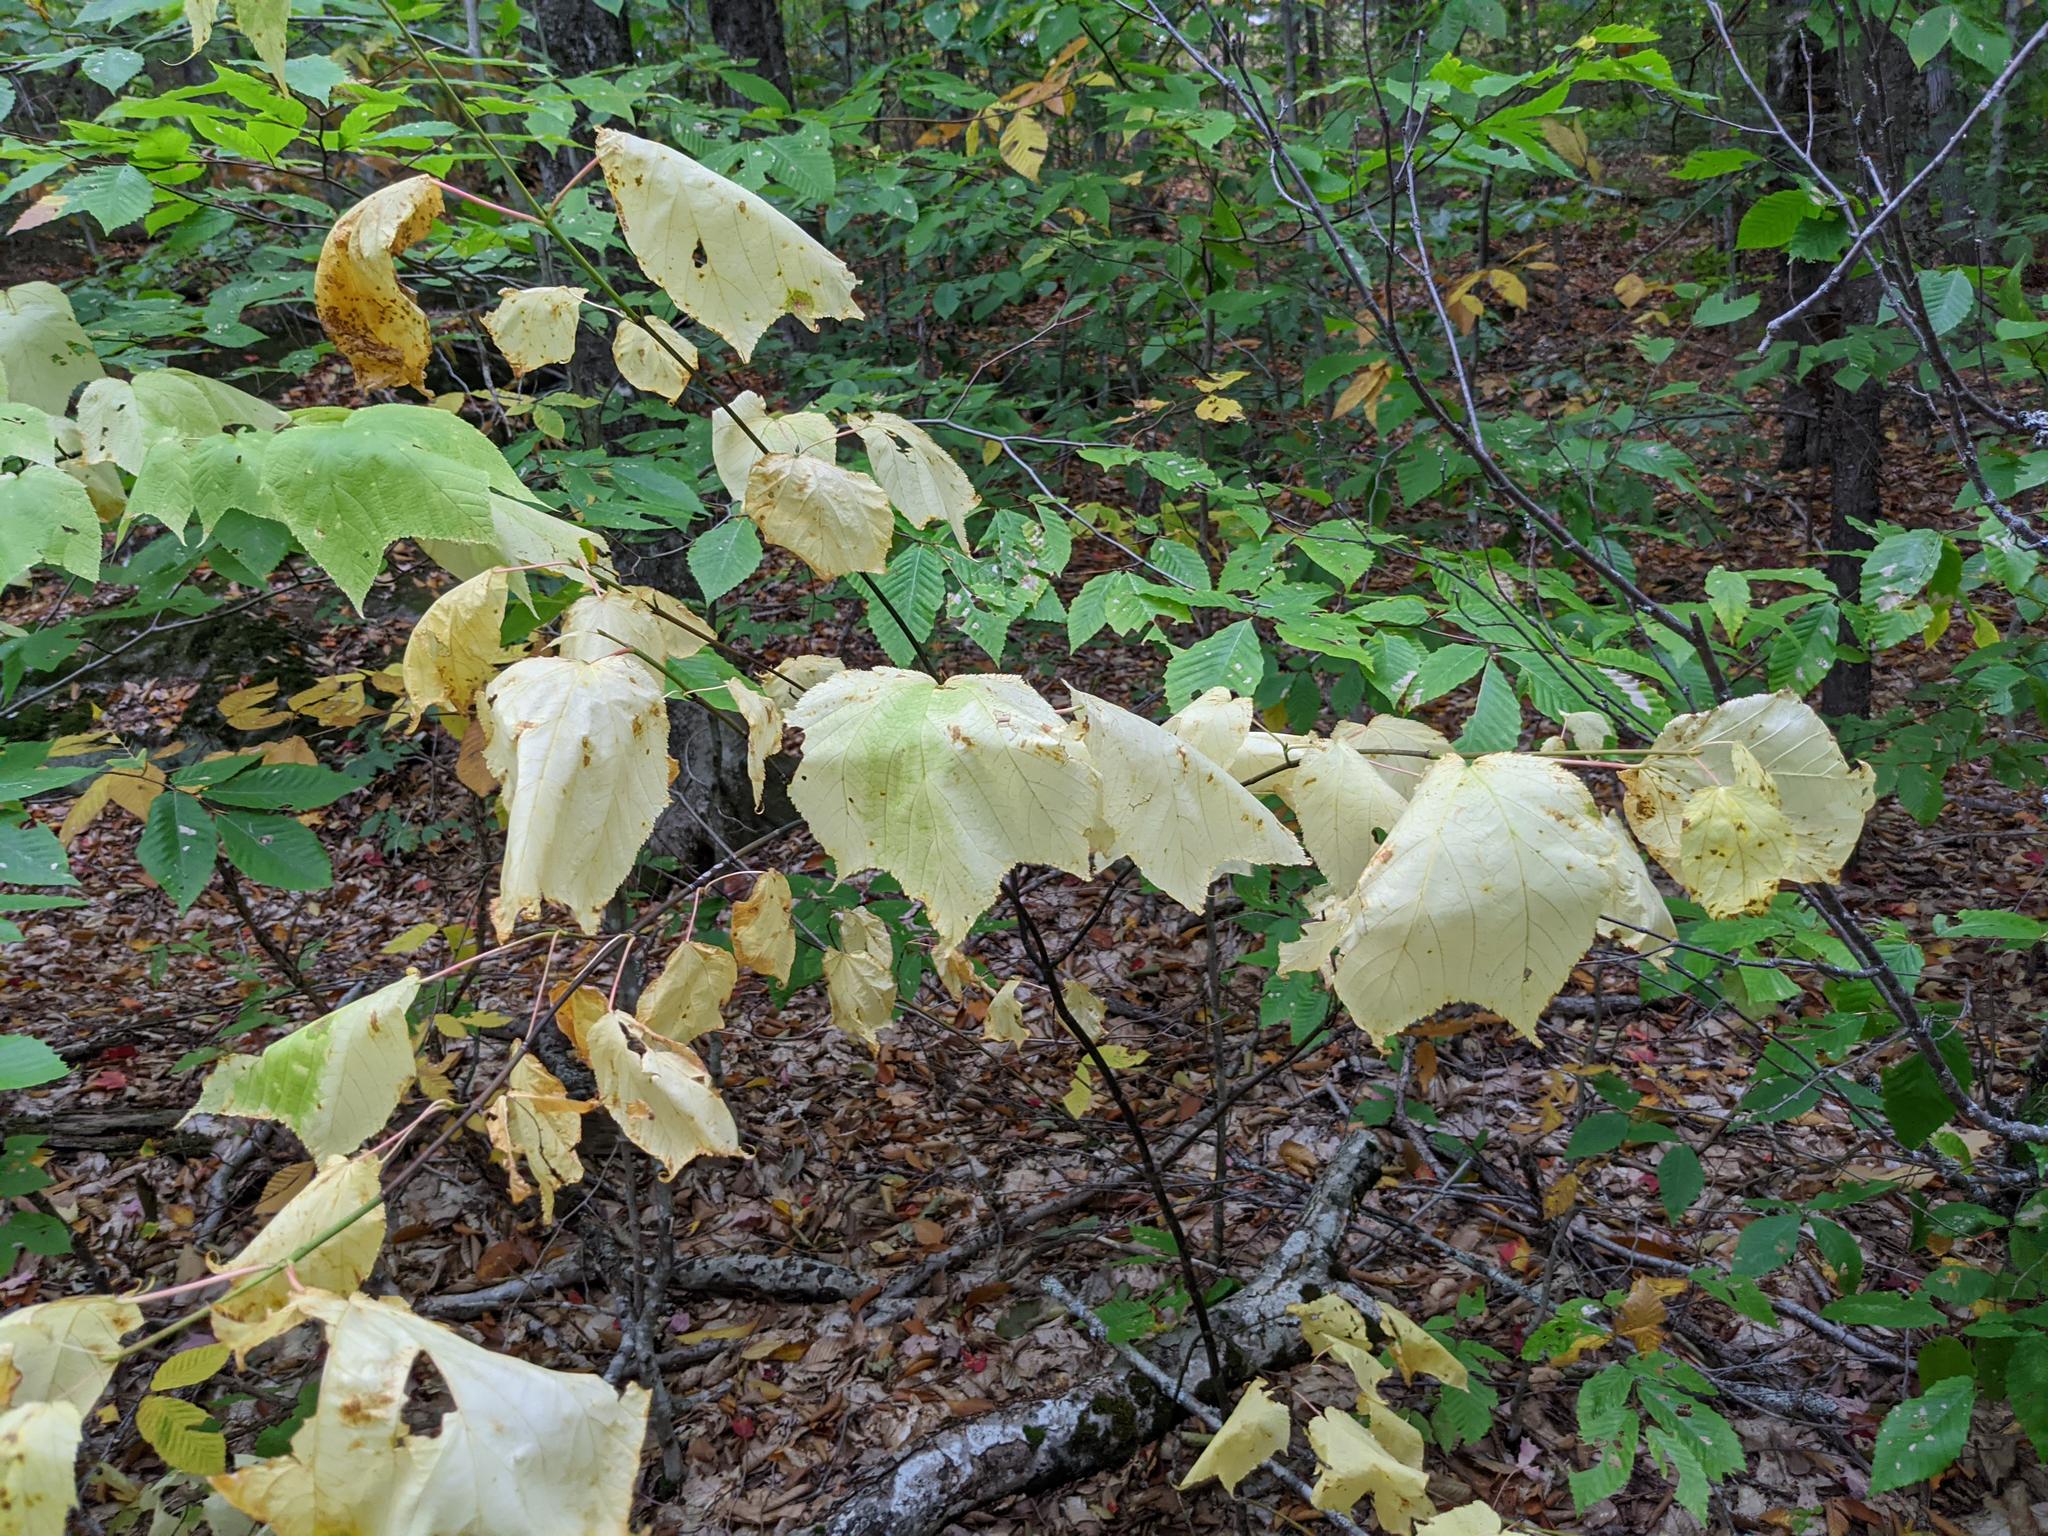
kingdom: Plantae
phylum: Tracheophyta
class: Magnoliopsida
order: Sapindales
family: Sapindaceae
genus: Acer
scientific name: Acer pensylvanicum
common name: Moosewood
